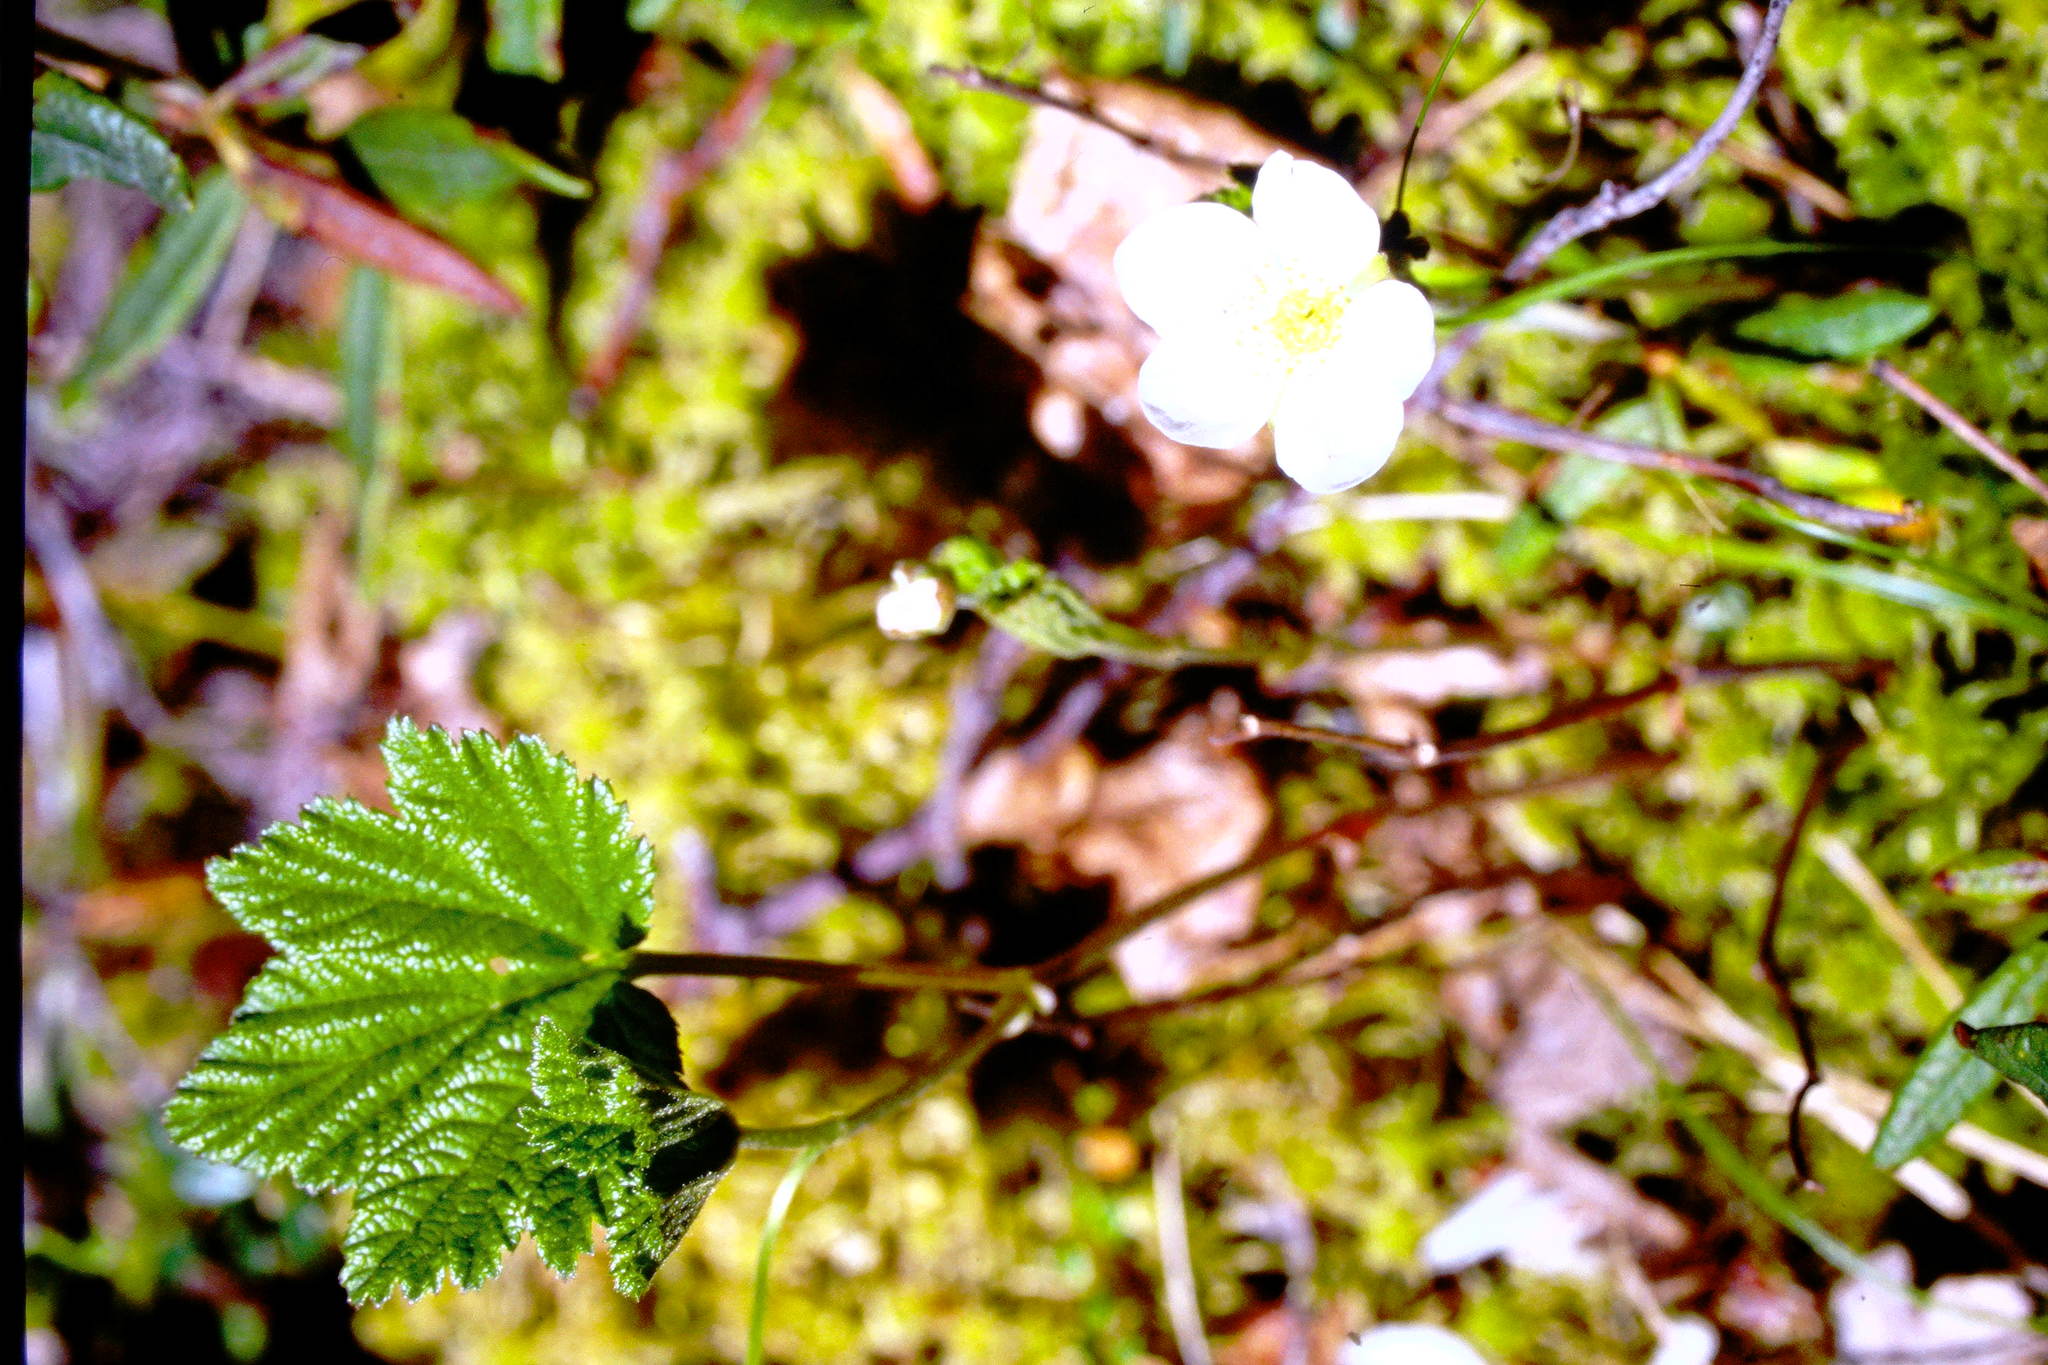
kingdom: Plantae
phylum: Tracheophyta
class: Magnoliopsida
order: Rosales
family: Rosaceae
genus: Rubus
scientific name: Rubus chamaemorus
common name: Cloudberry
